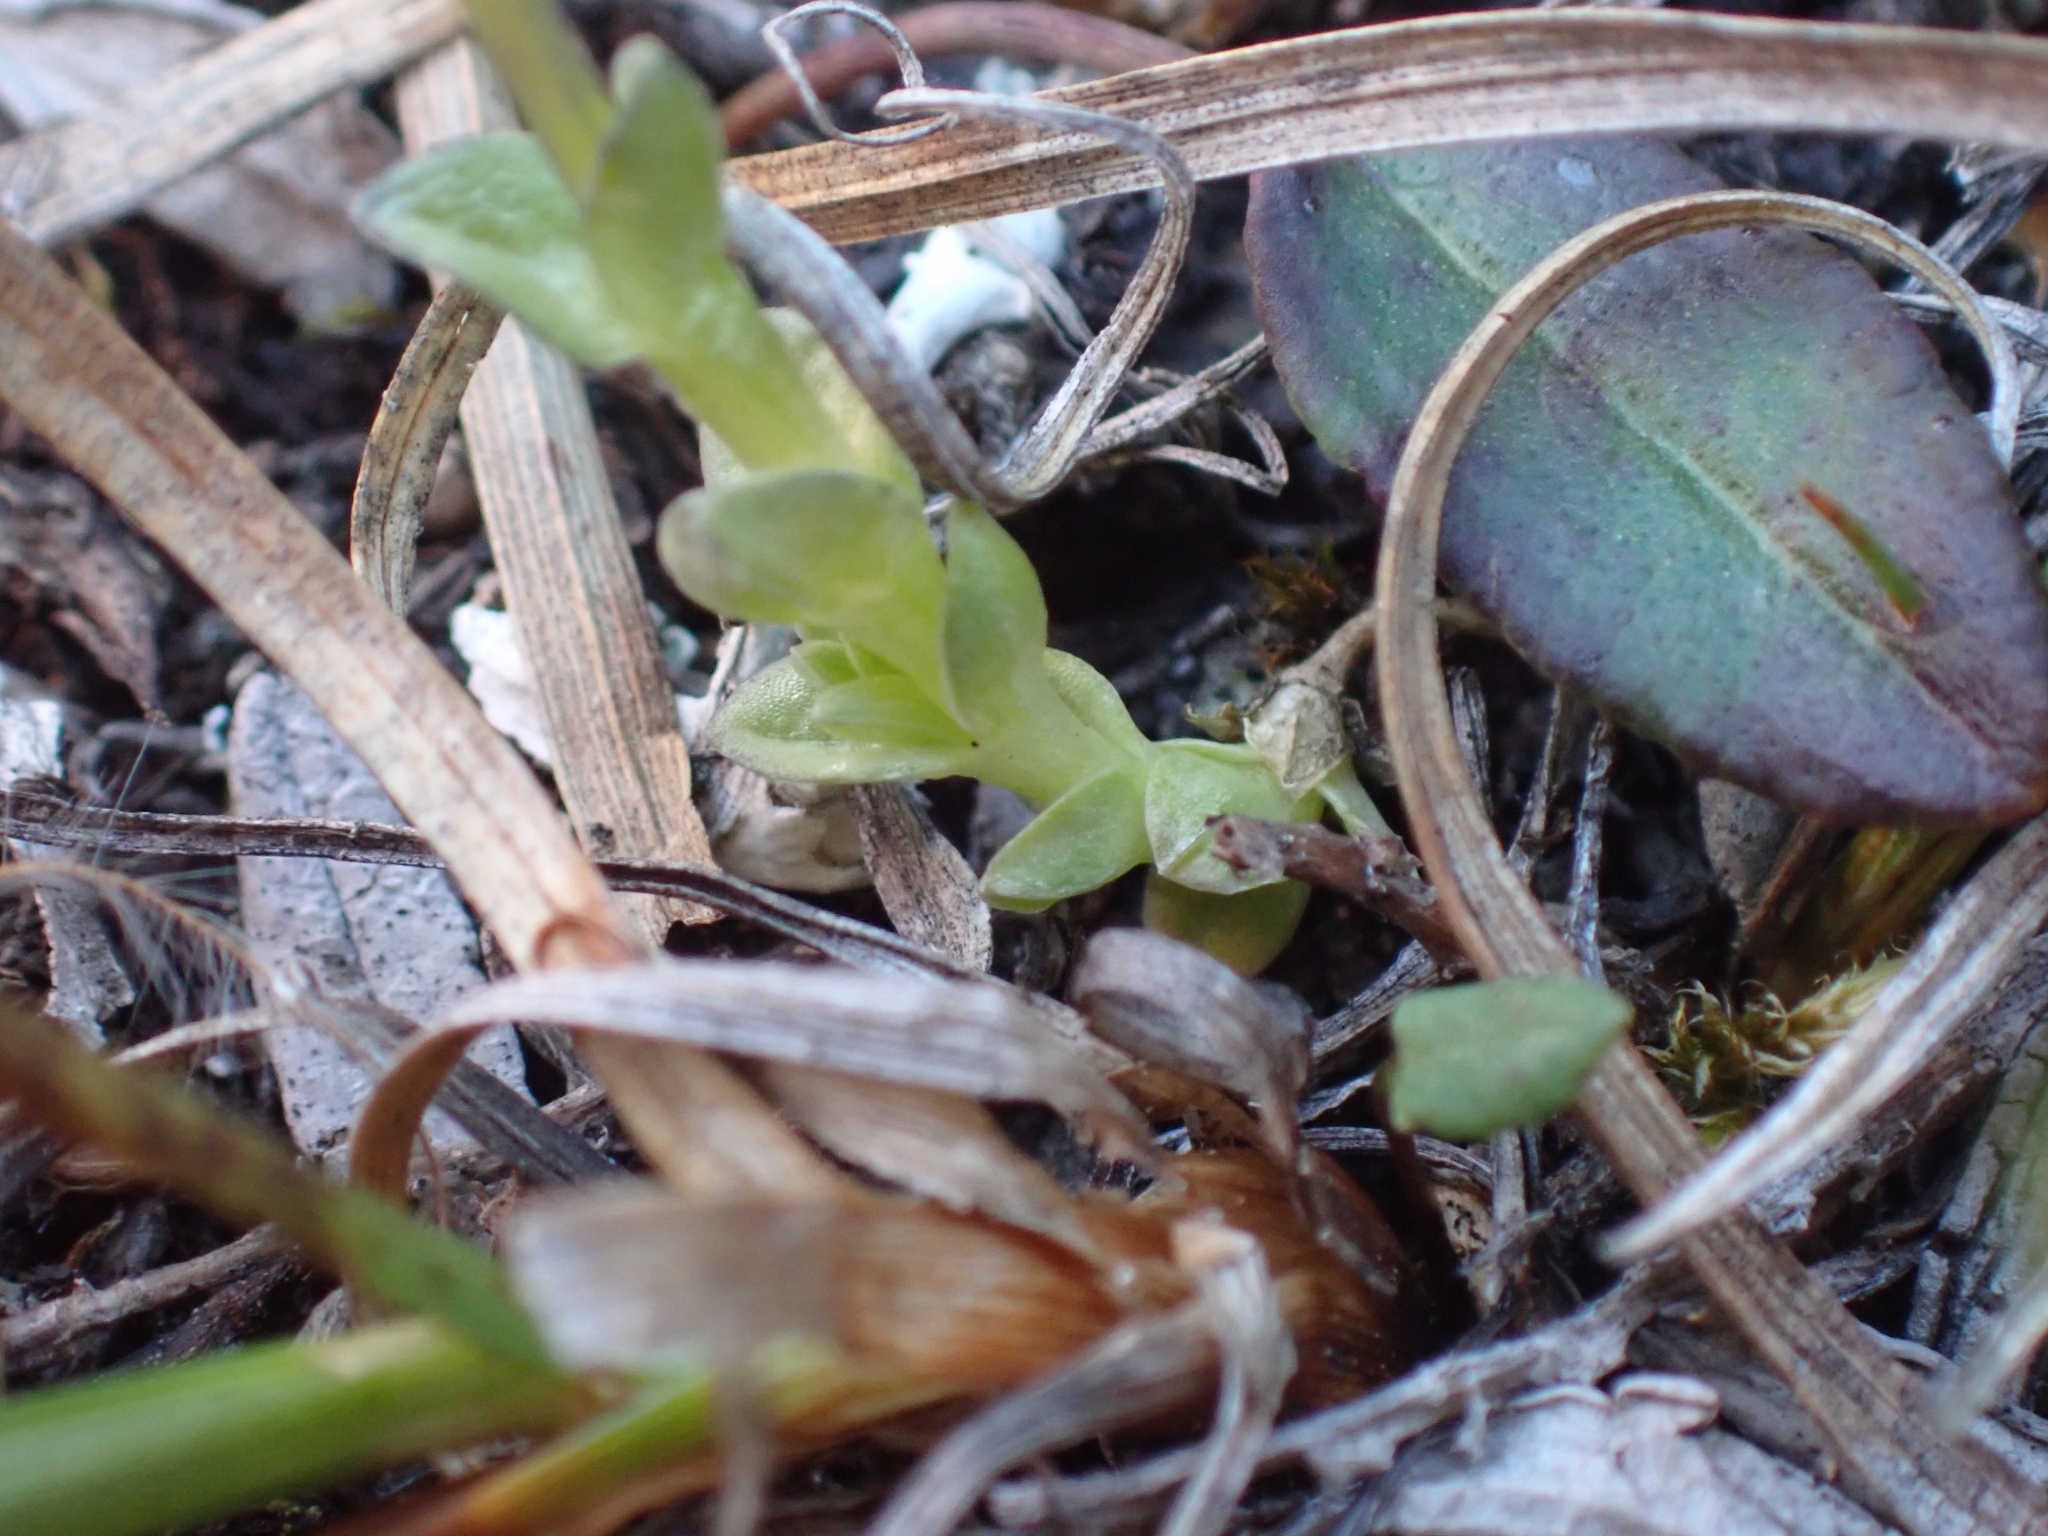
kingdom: Plantae
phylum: Tracheophyta
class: Magnoliopsida
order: Gentianales
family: Gentianaceae
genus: Gentiana
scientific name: Gentiana prostrata
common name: Moss gentian
